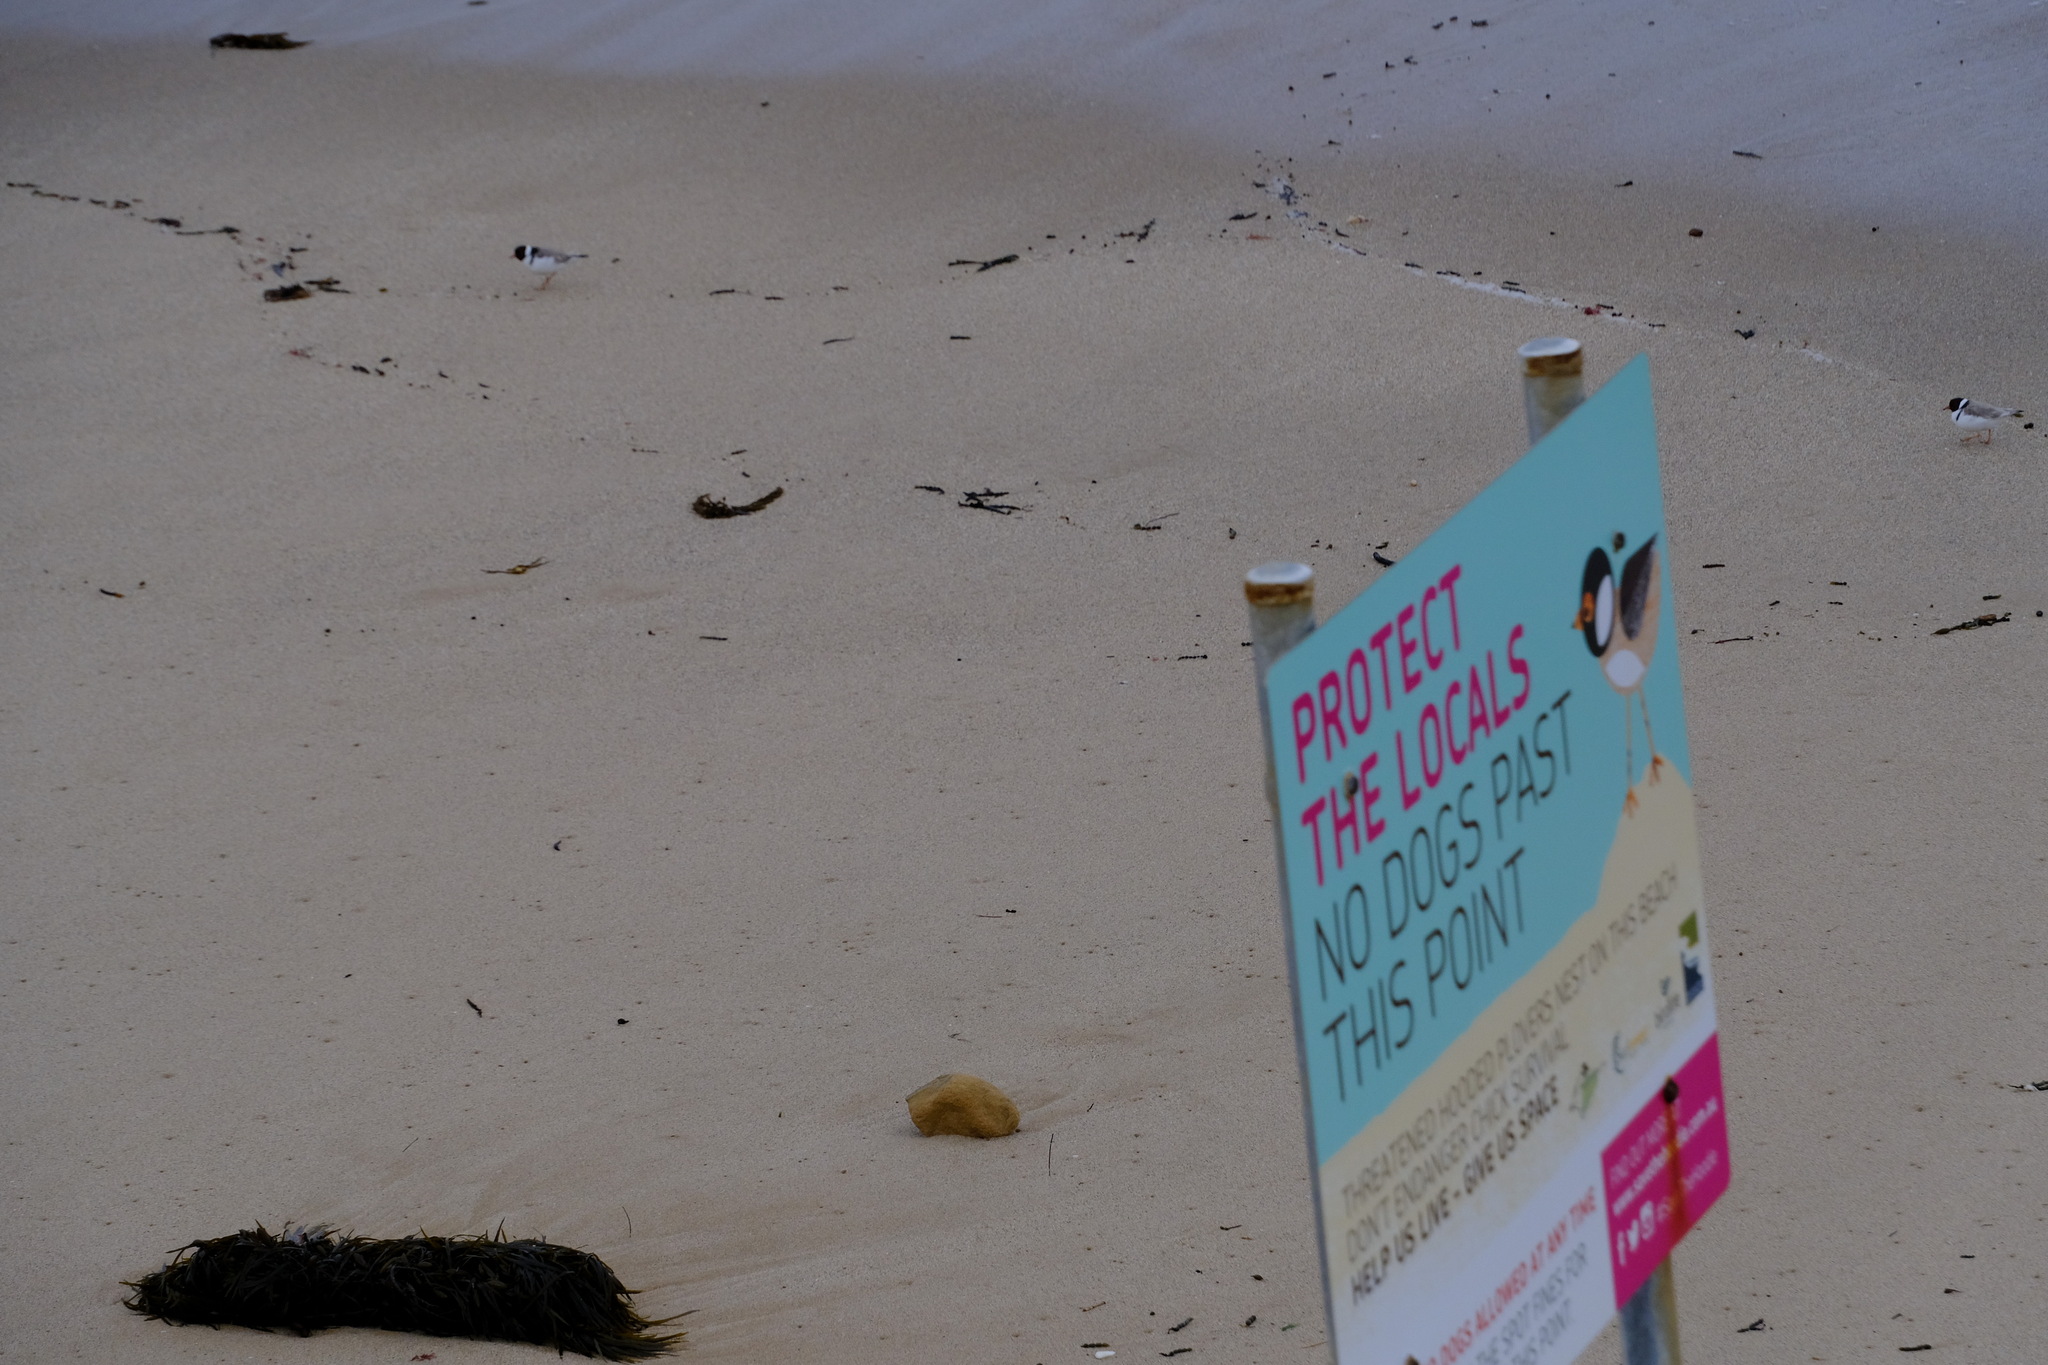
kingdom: Animalia
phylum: Chordata
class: Aves
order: Charadriiformes
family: Charadriidae
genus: Thinornis
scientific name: Thinornis cucullatus
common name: Hooded dotterel
